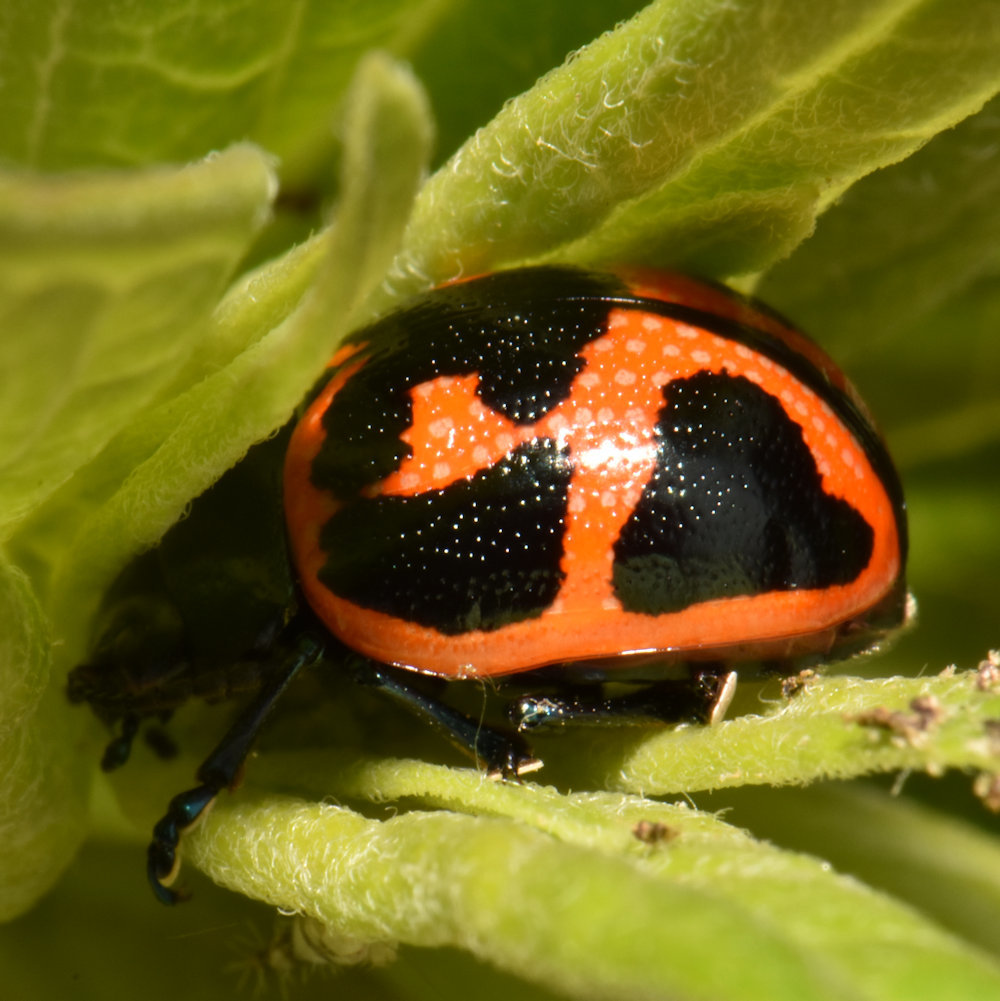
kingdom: Animalia
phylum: Arthropoda
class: Insecta
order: Coleoptera
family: Chrysomelidae
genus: Labidomera
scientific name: Labidomera clivicollis
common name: Swamp milkweed leaf beetle
